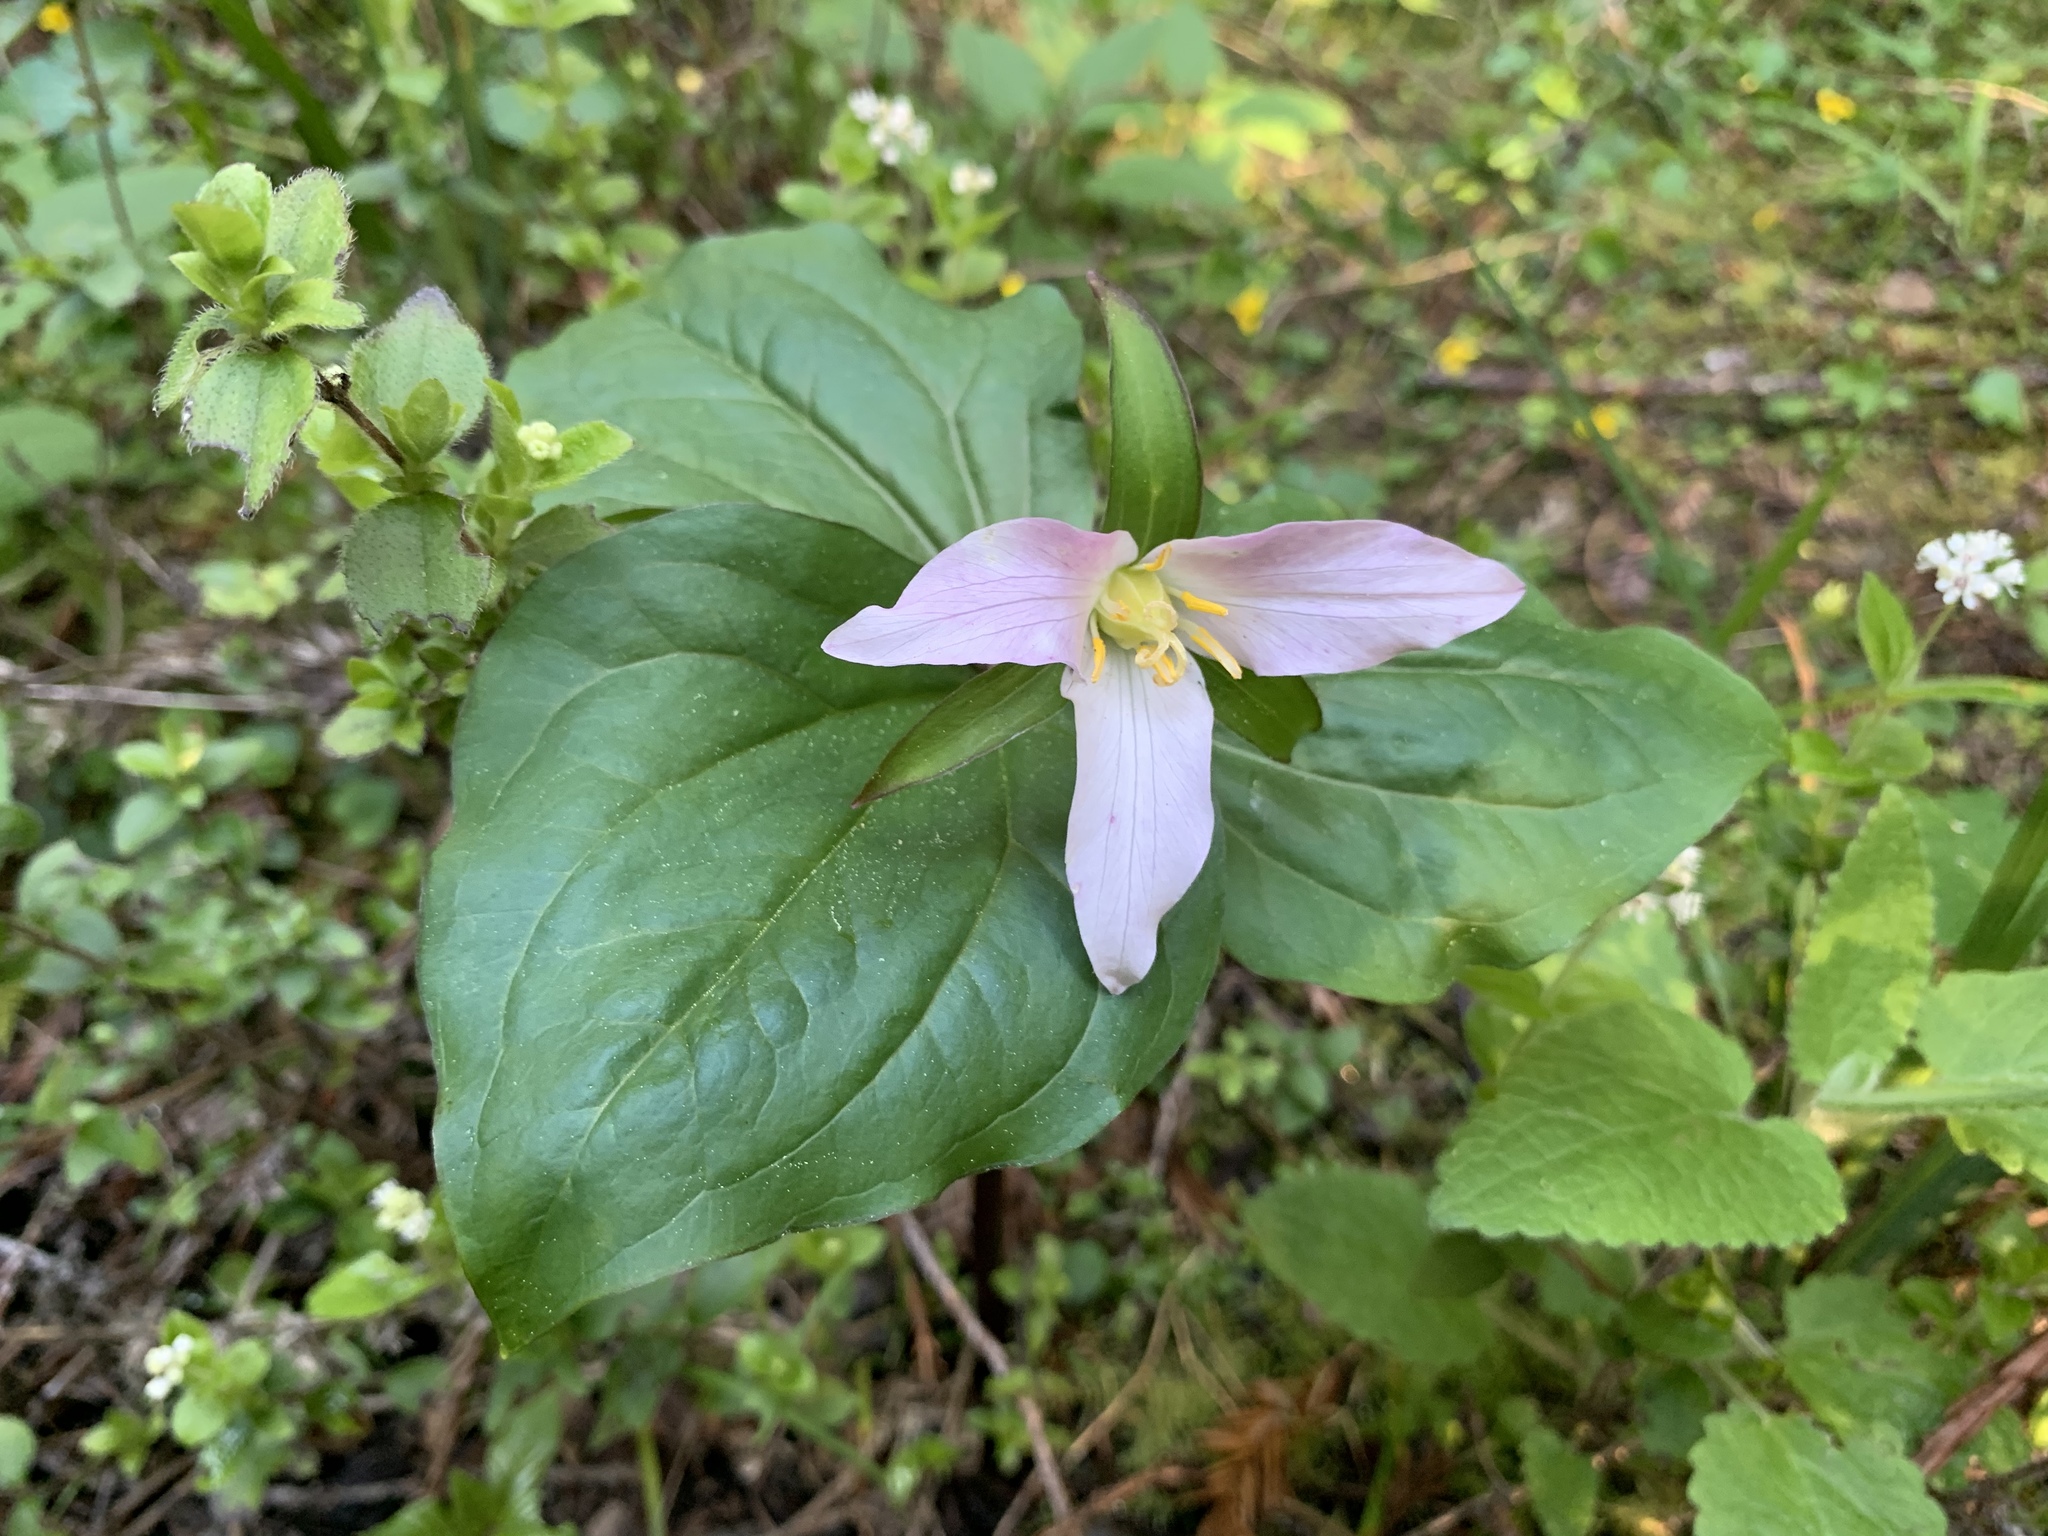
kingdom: Plantae
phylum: Tracheophyta
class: Liliopsida
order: Liliales
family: Melanthiaceae
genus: Trillium
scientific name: Trillium ovatum
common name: Pacific trillium
